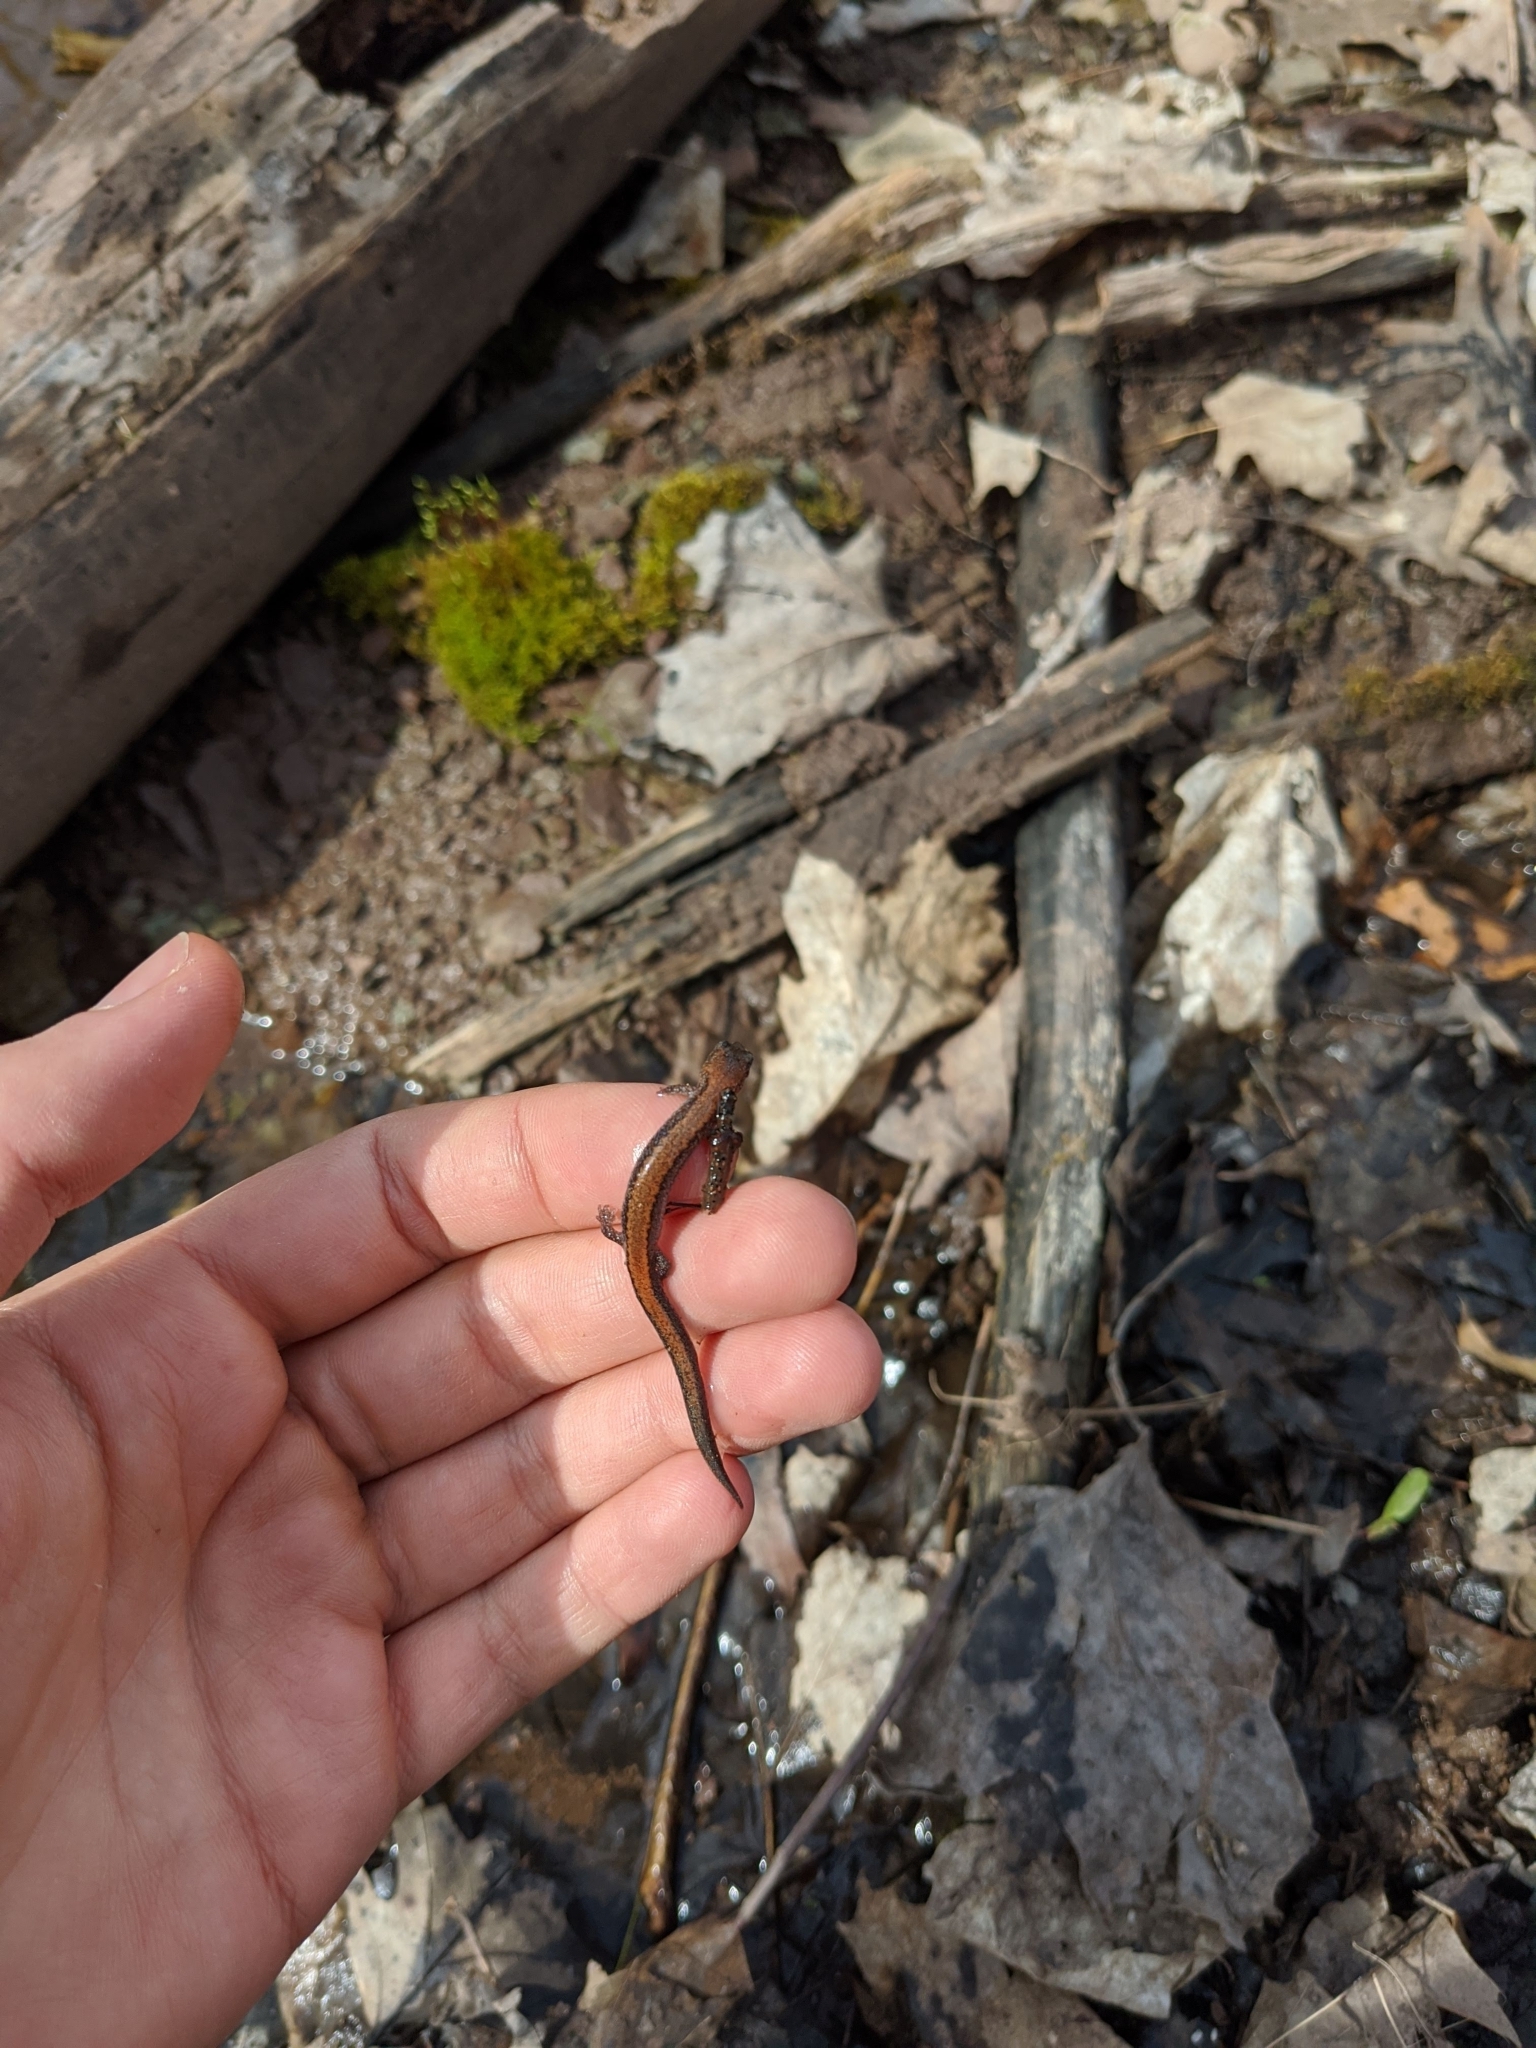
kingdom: Animalia
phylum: Chordata
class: Amphibia
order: Caudata
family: Plethodontidae
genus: Plethodon
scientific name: Plethodon cinereus
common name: Redback salamander
